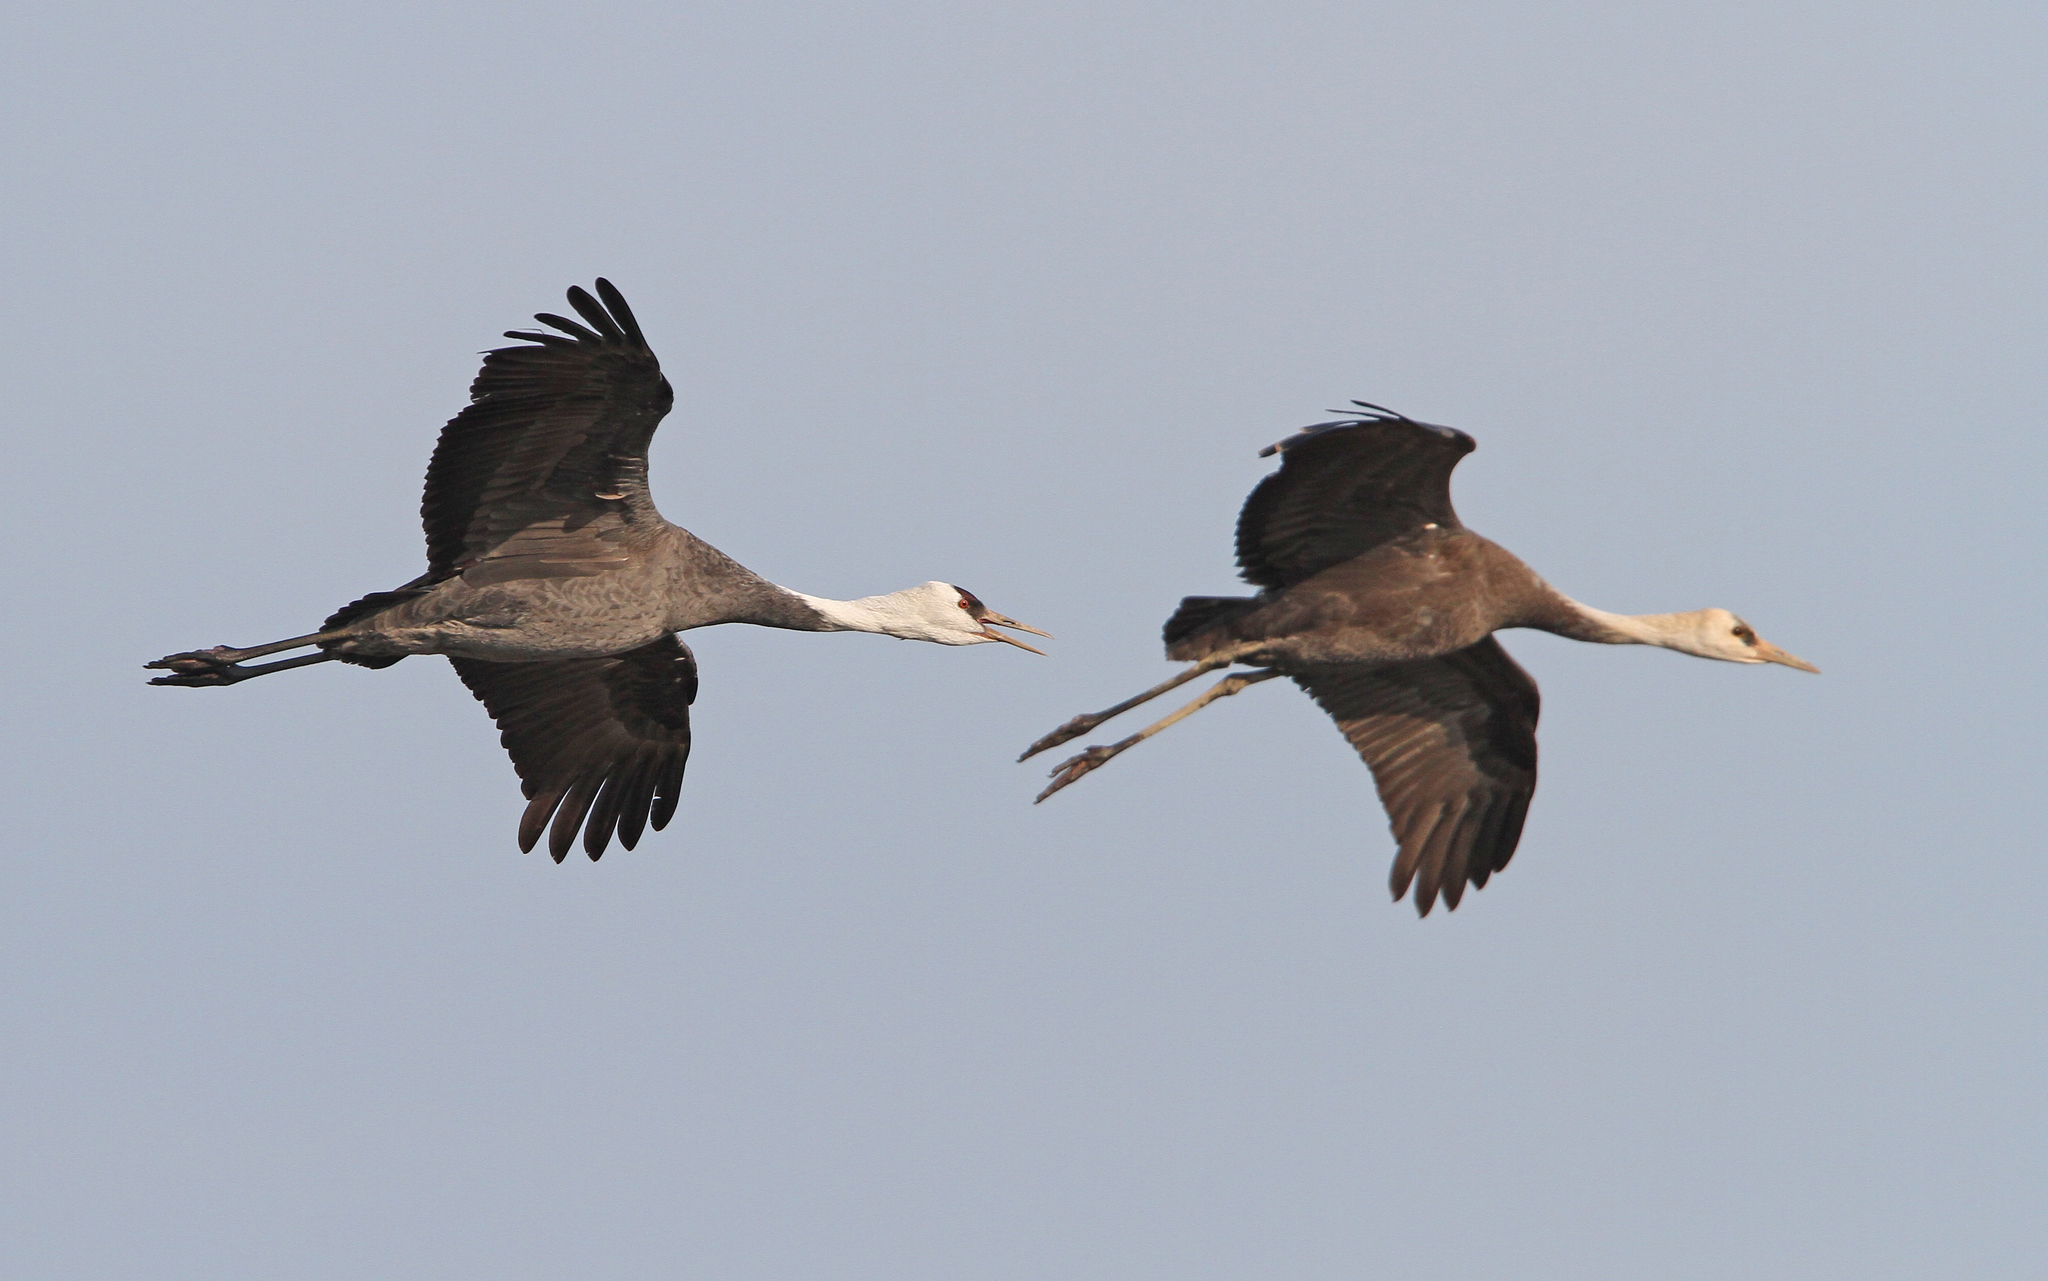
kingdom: Animalia
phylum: Chordata
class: Aves
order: Gruiformes
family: Gruidae
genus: Grus
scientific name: Grus monacha
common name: Hooded crane
